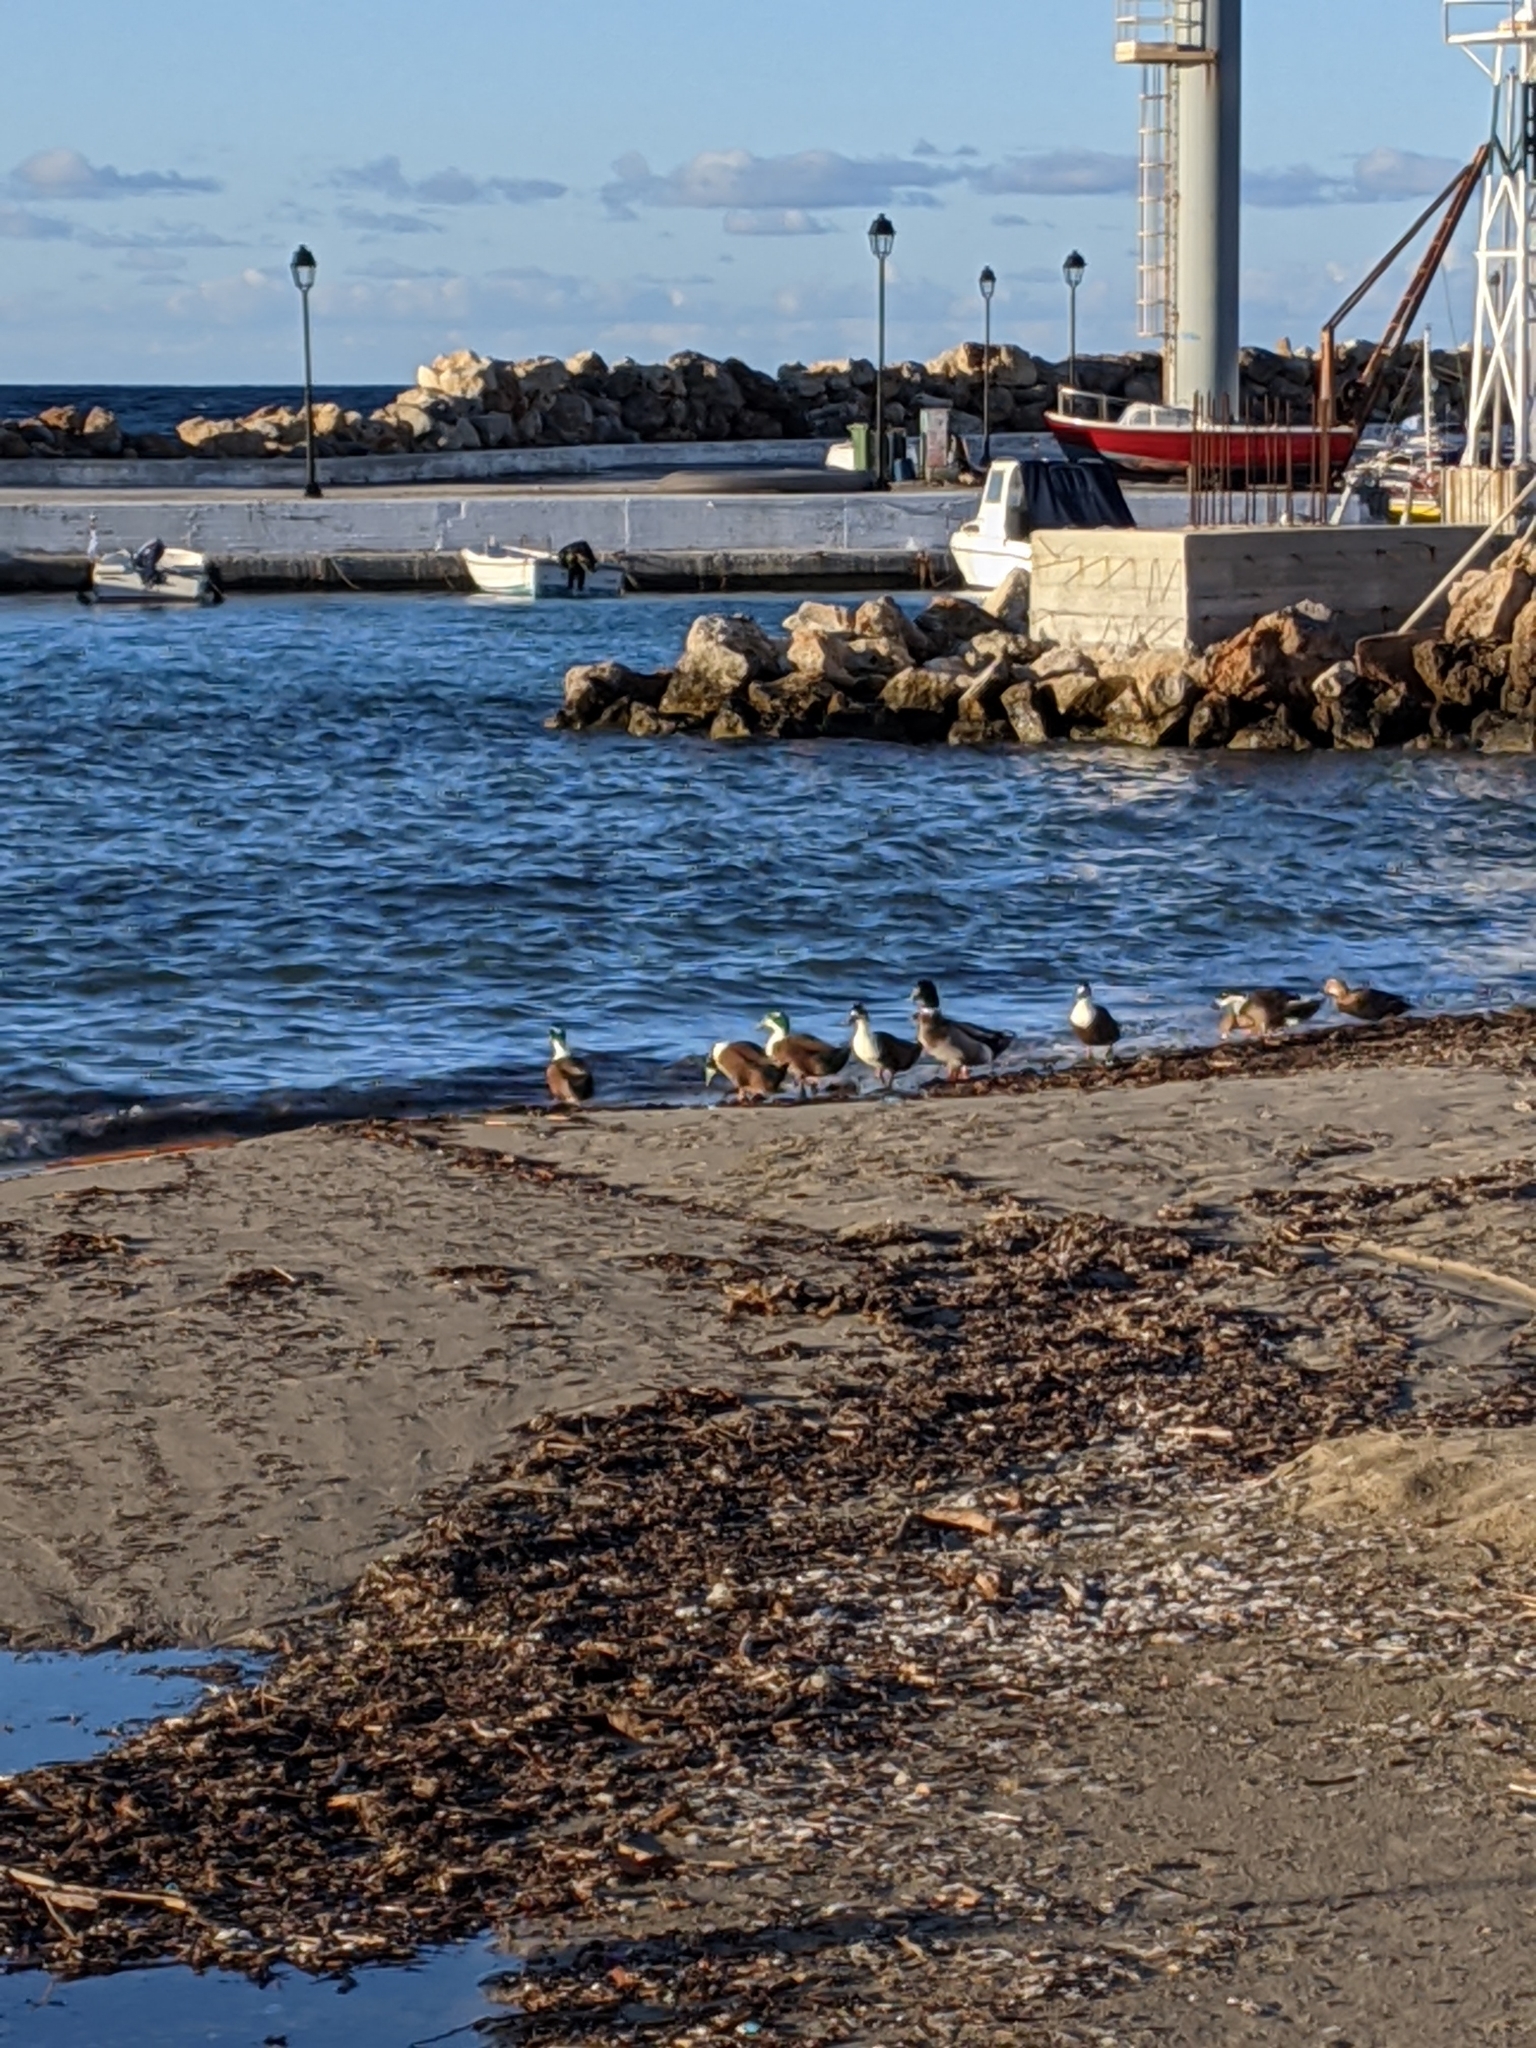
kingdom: Animalia
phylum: Chordata
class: Aves
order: Anseriformes
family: Anatidae
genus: Anas
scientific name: Anas platyrhynchos
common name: Mallard
